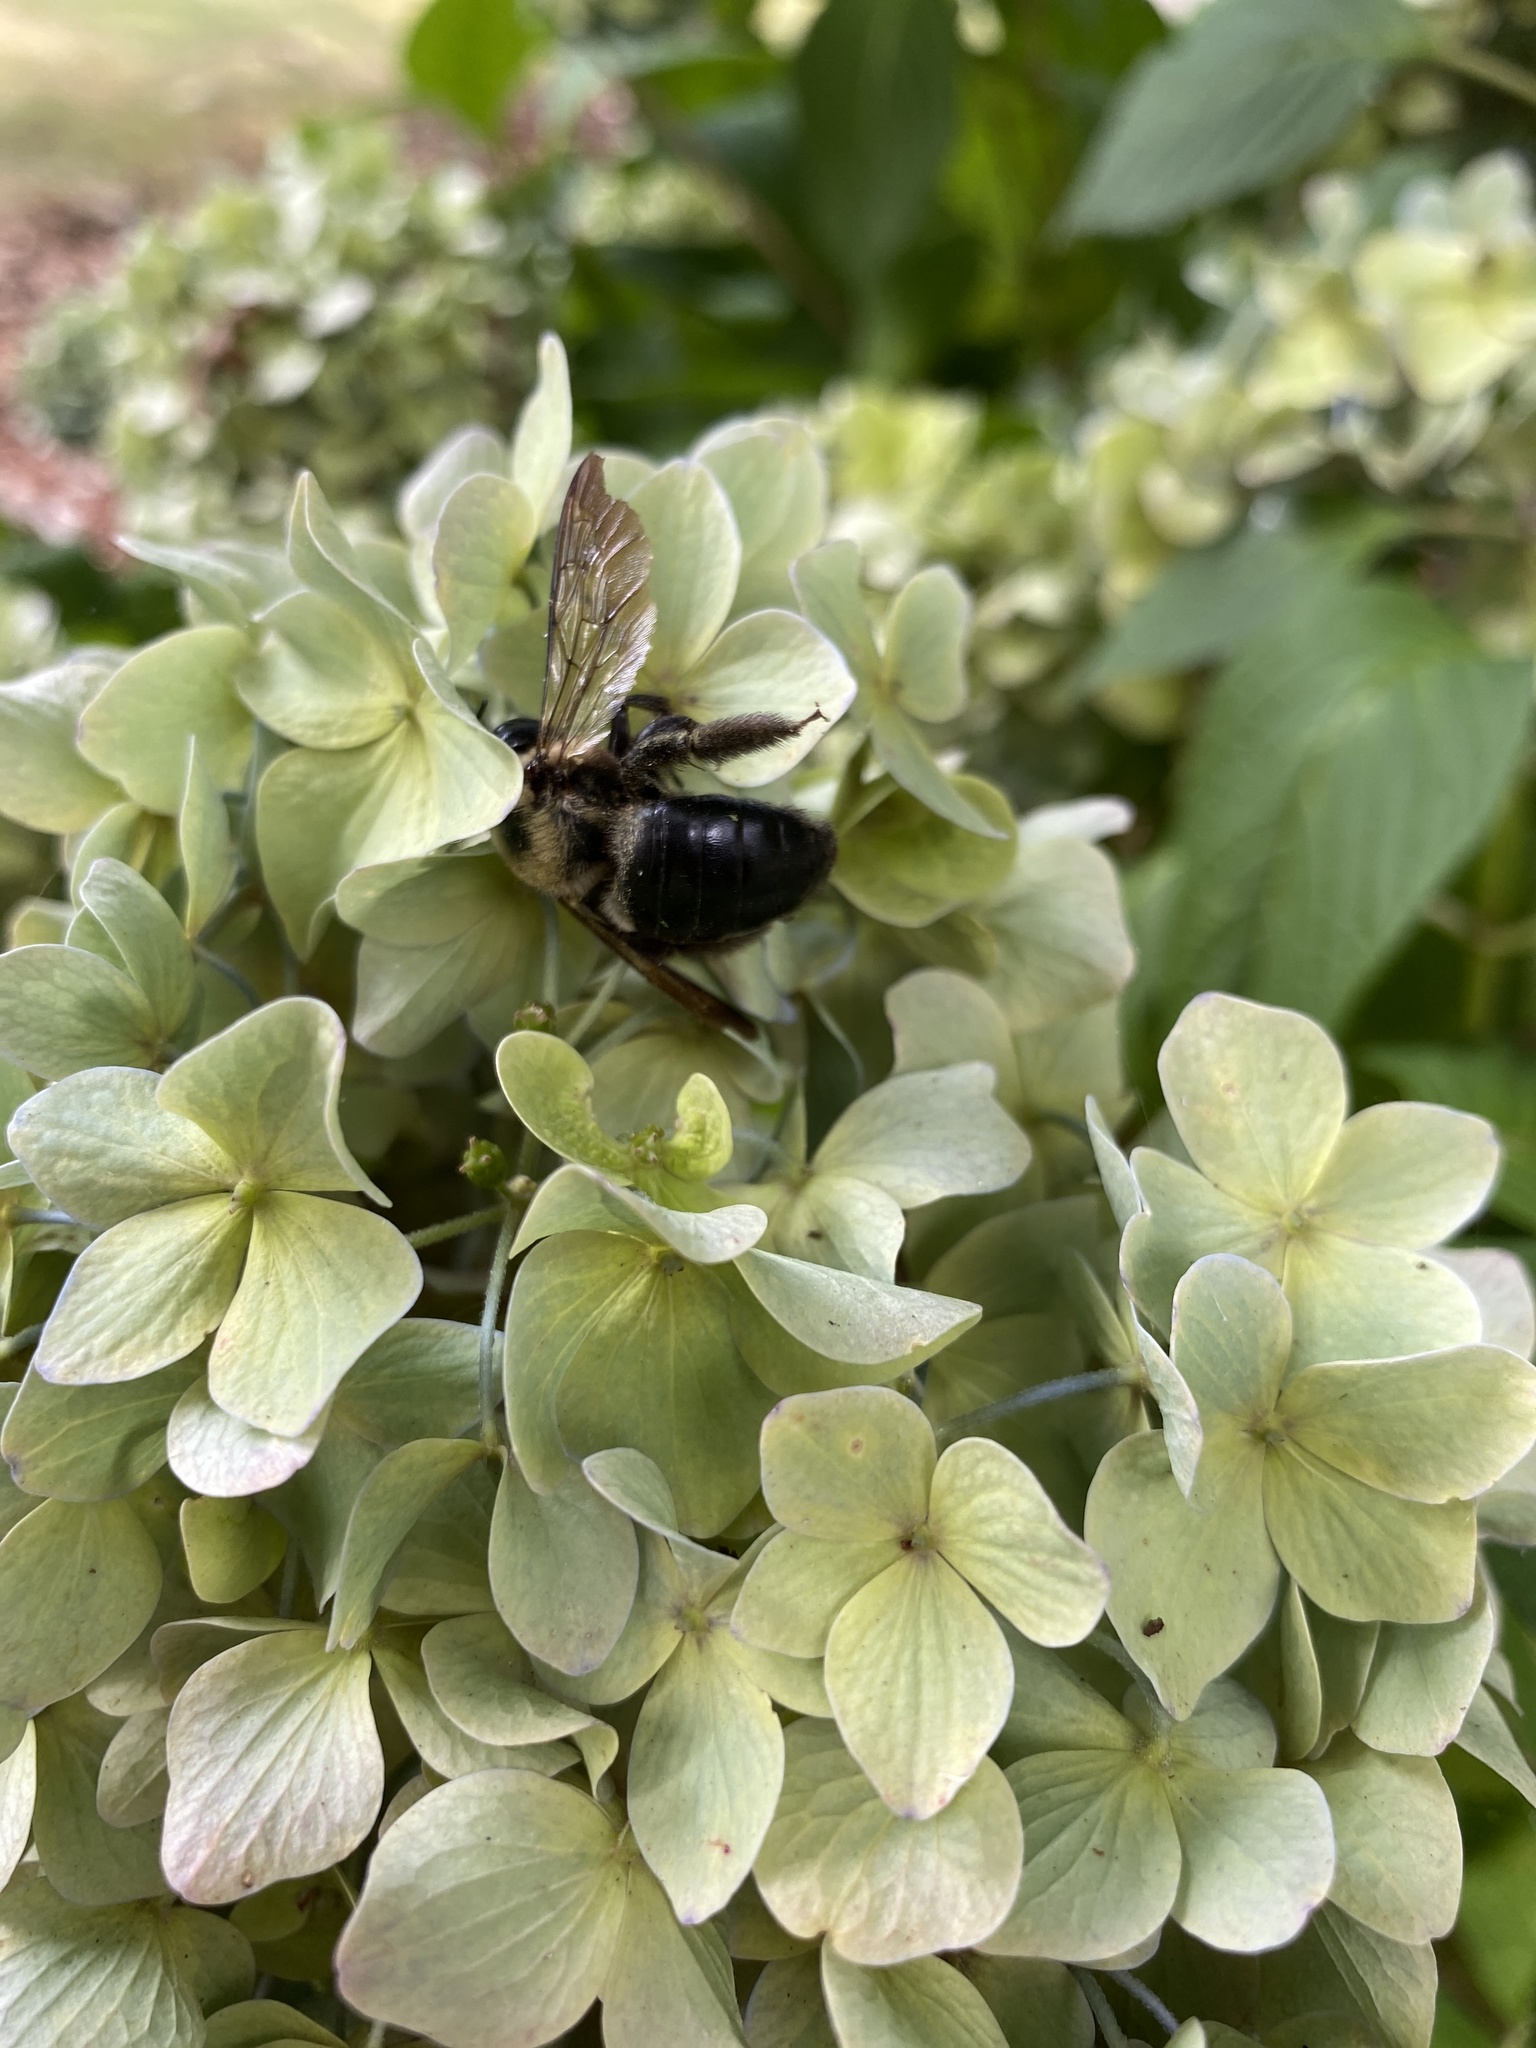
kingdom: Animalia
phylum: Arthropoda
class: Insecta
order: Hymenoptera
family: Apidae
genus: Xylocopa
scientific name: Xylocopa virginica
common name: Carpenter bee
